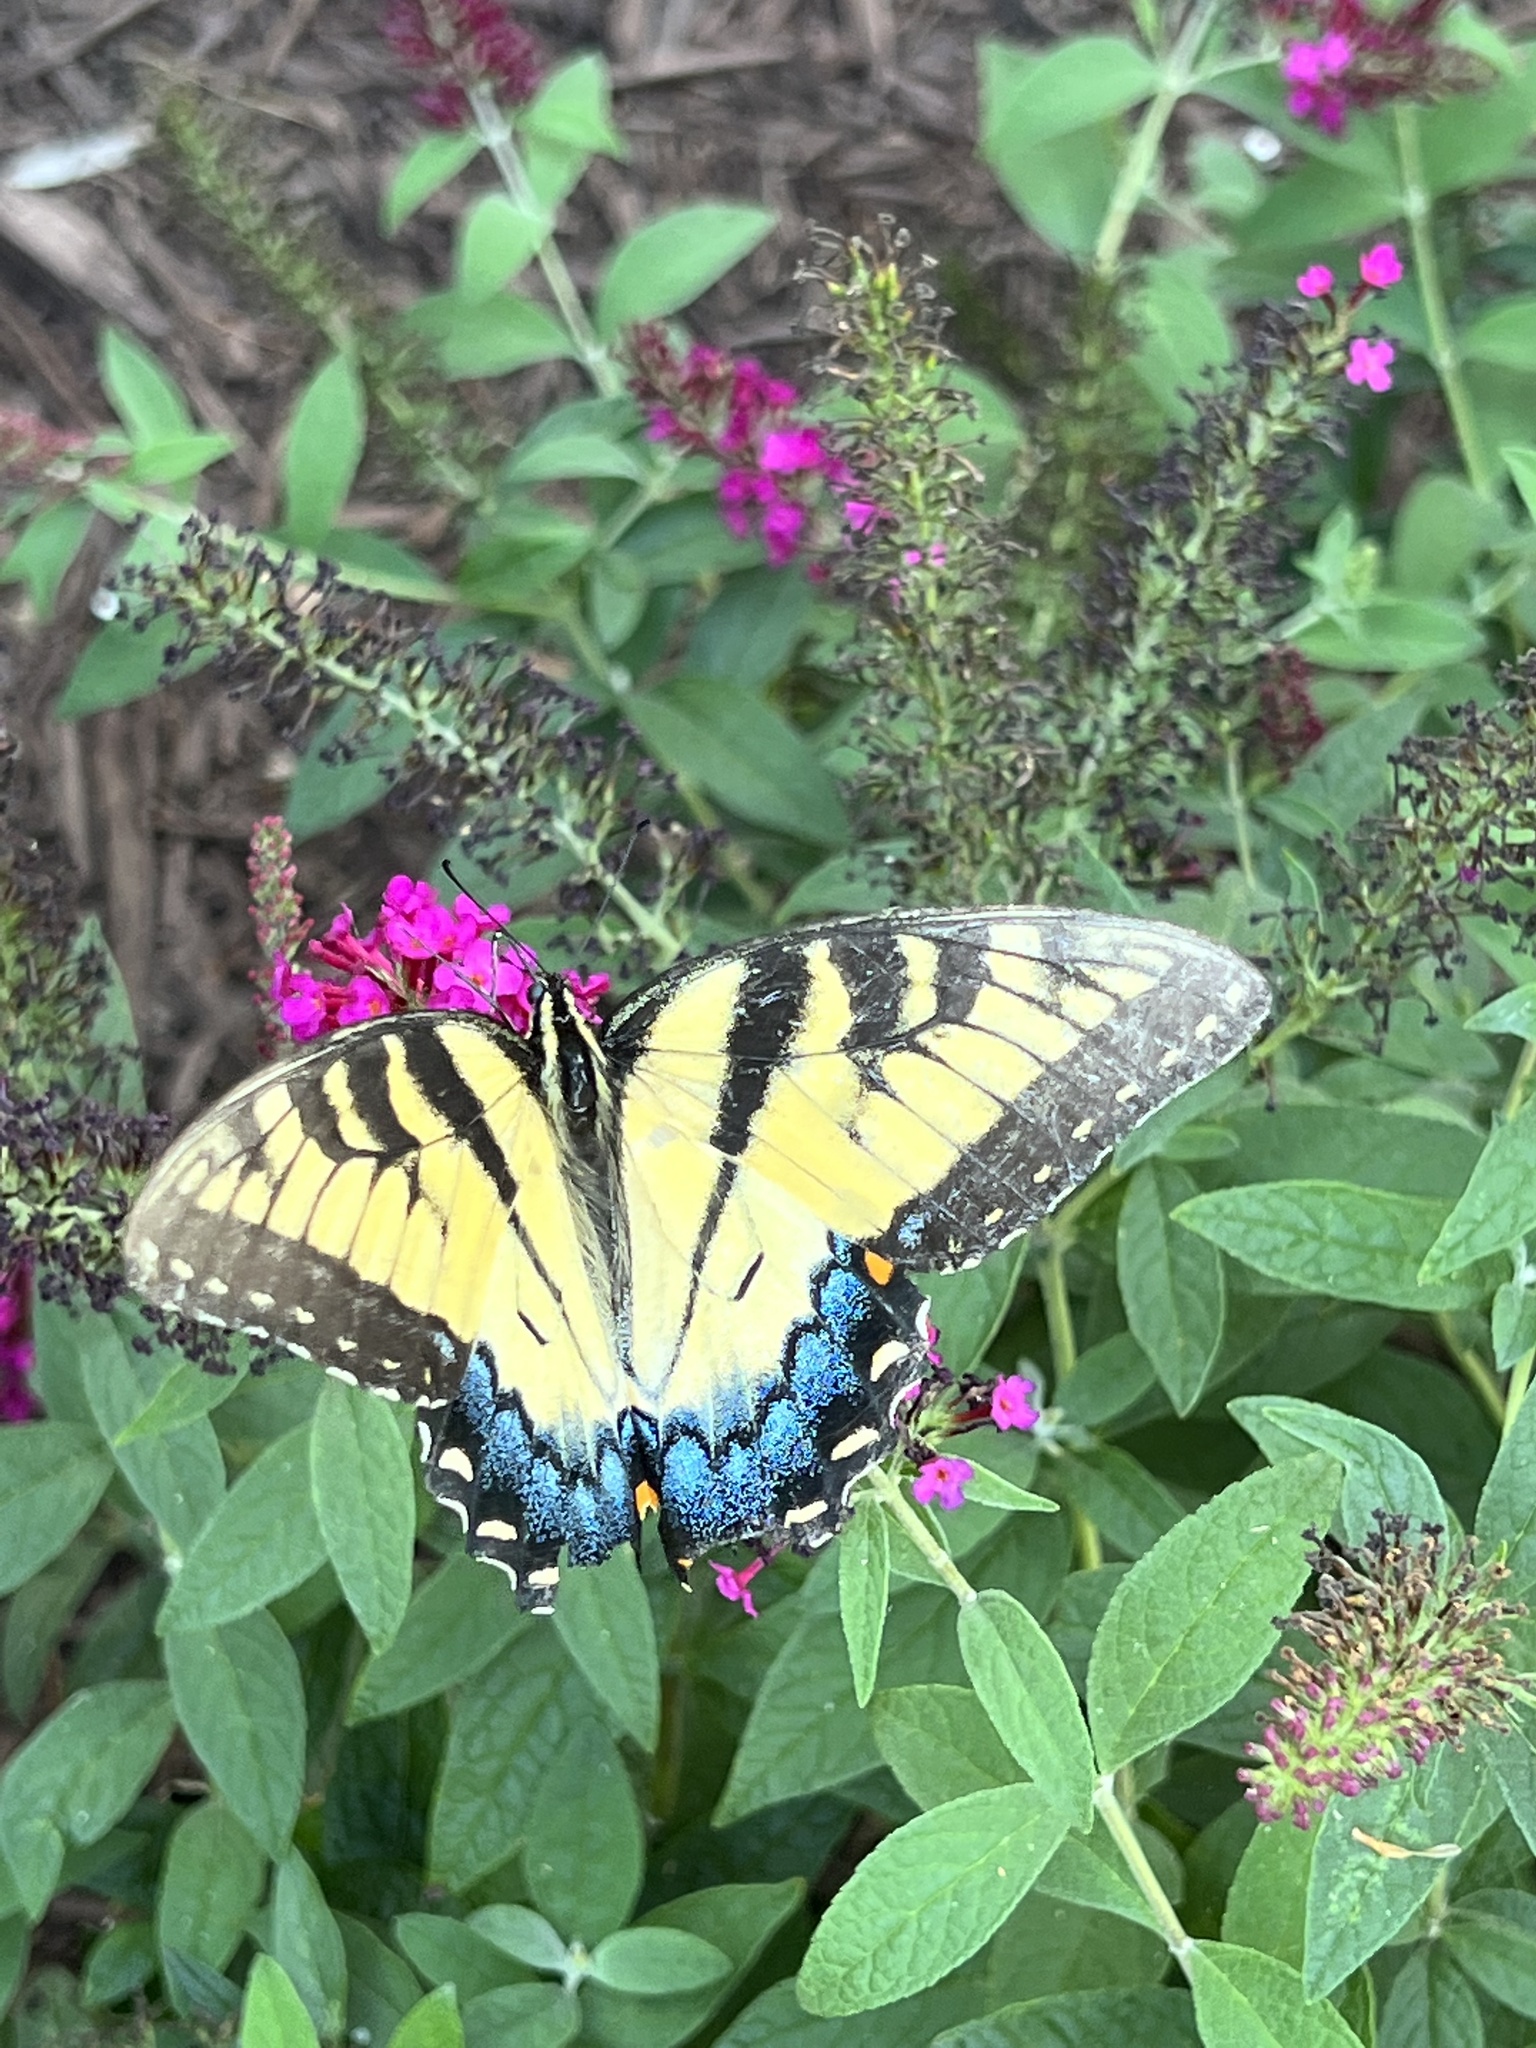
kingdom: Animalia
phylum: Arthropoda
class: Insecta
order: Lepidoptera
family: Papilionidae
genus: Papilio
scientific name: Papilio glaucus
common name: Tiger swallowtail
